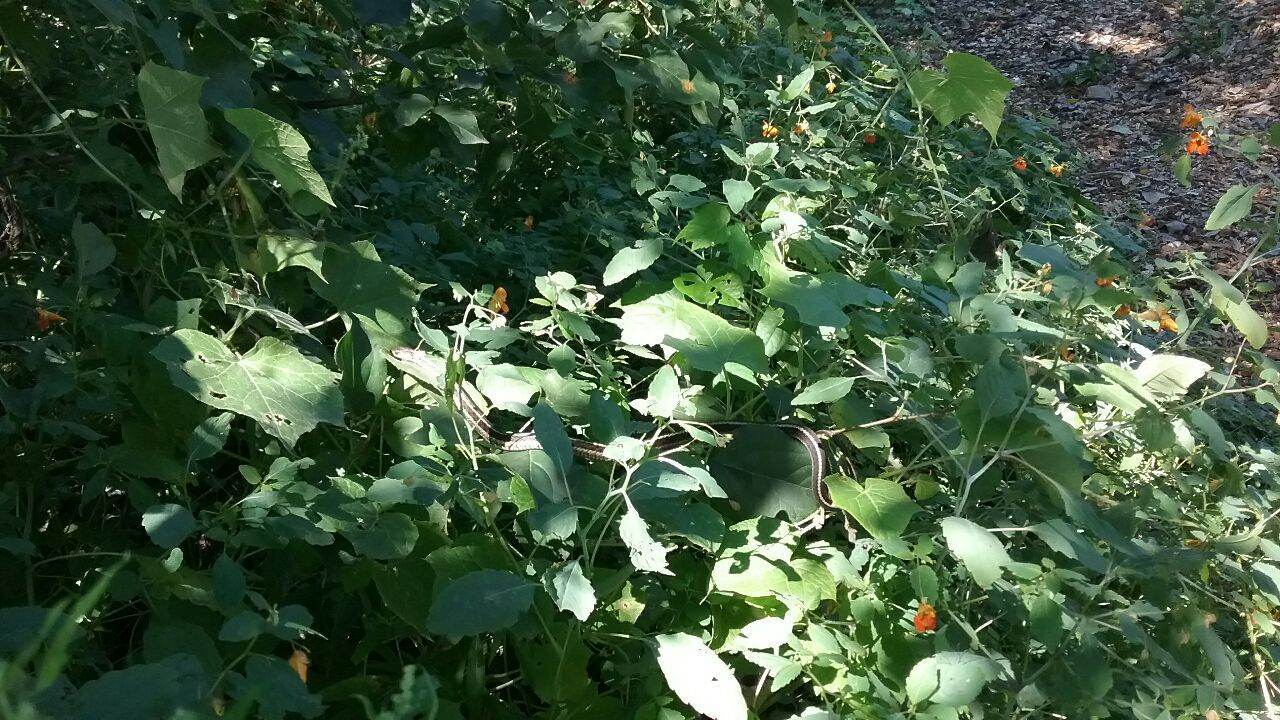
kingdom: Animalia
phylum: Chordata
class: Squamata
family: Colubridae
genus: Thamnophis
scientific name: Thamnophis sirtalis
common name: Common garter snake
